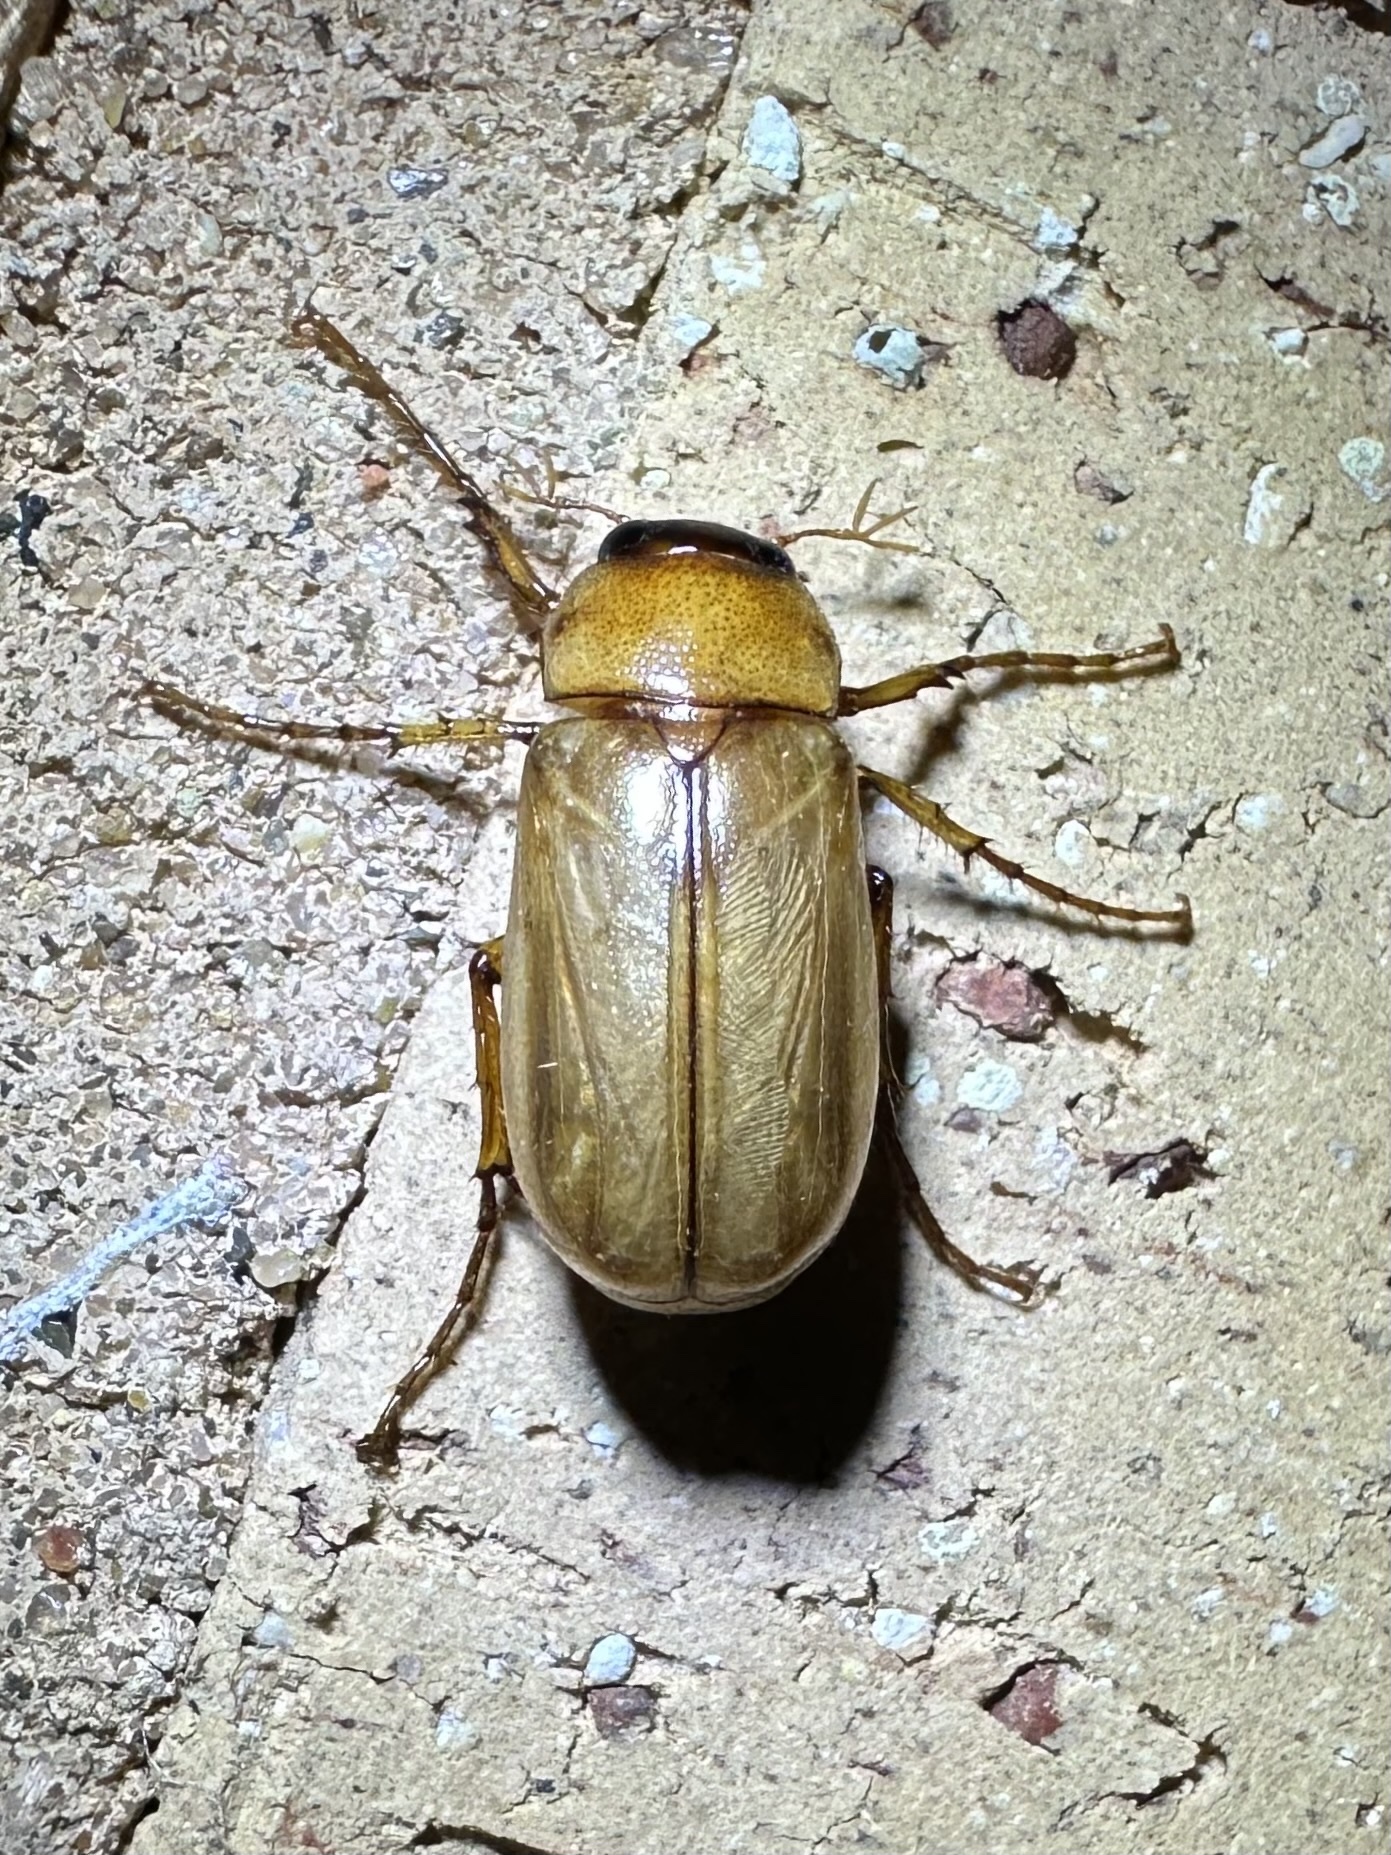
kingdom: Animalia
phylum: Arthropoda
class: Insecta
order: Coleoptera
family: Scarabaeidae
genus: Chlaenobia
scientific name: Chlaenobia vexata
